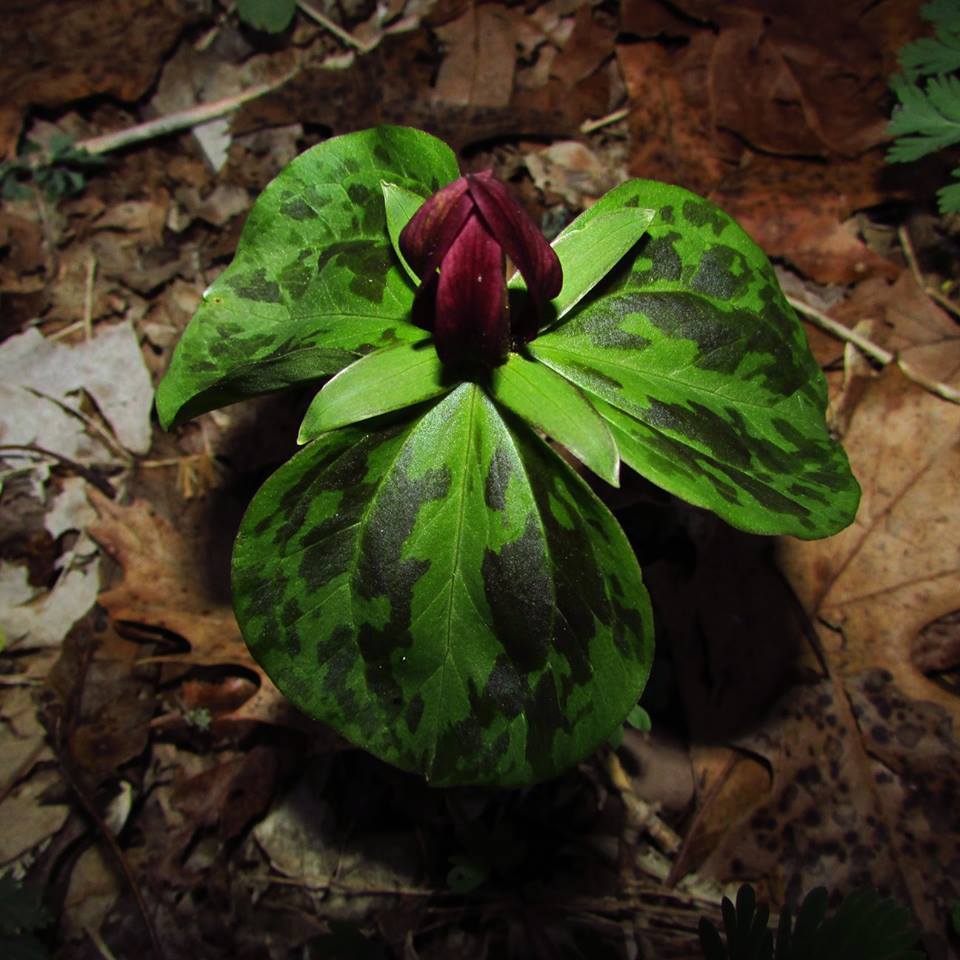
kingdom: Plantae
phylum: Tracheophyta
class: Liliopsida
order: Liliales
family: Melanthiaceae
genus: Trillium
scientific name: Trillium sessile
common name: Sessile trillium
